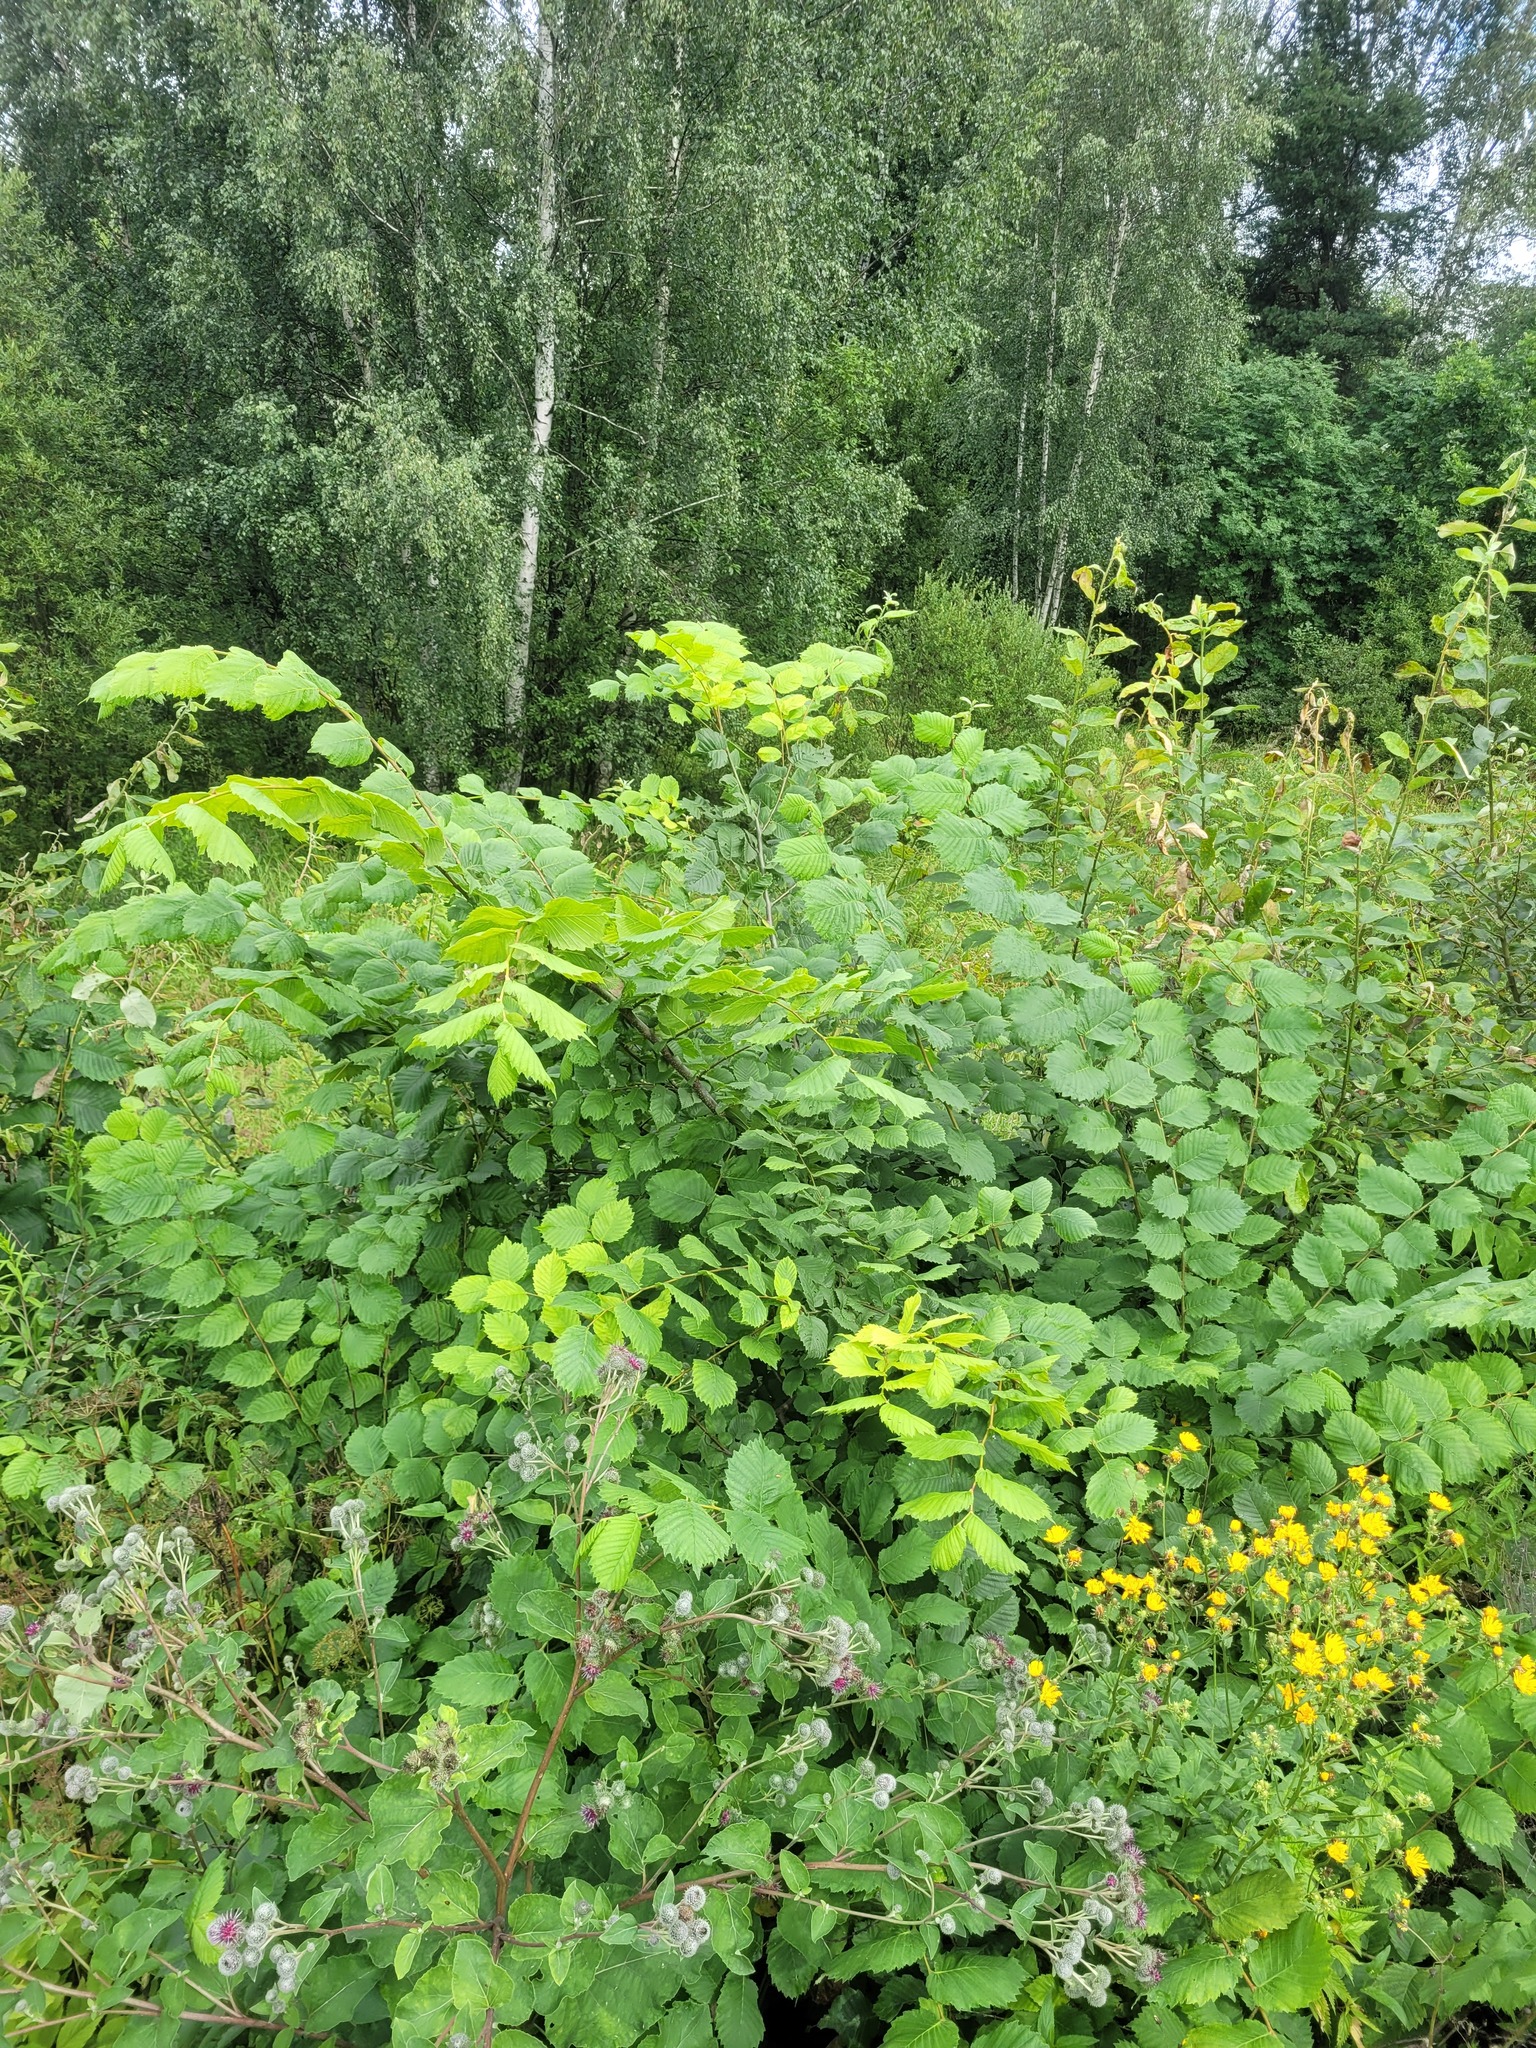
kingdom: Plantae
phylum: Tracheophyta
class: Magnoliopsida
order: Rosales
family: Ulmaceae
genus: Ulmus
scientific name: Ulmus laevis
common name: European white-elm
